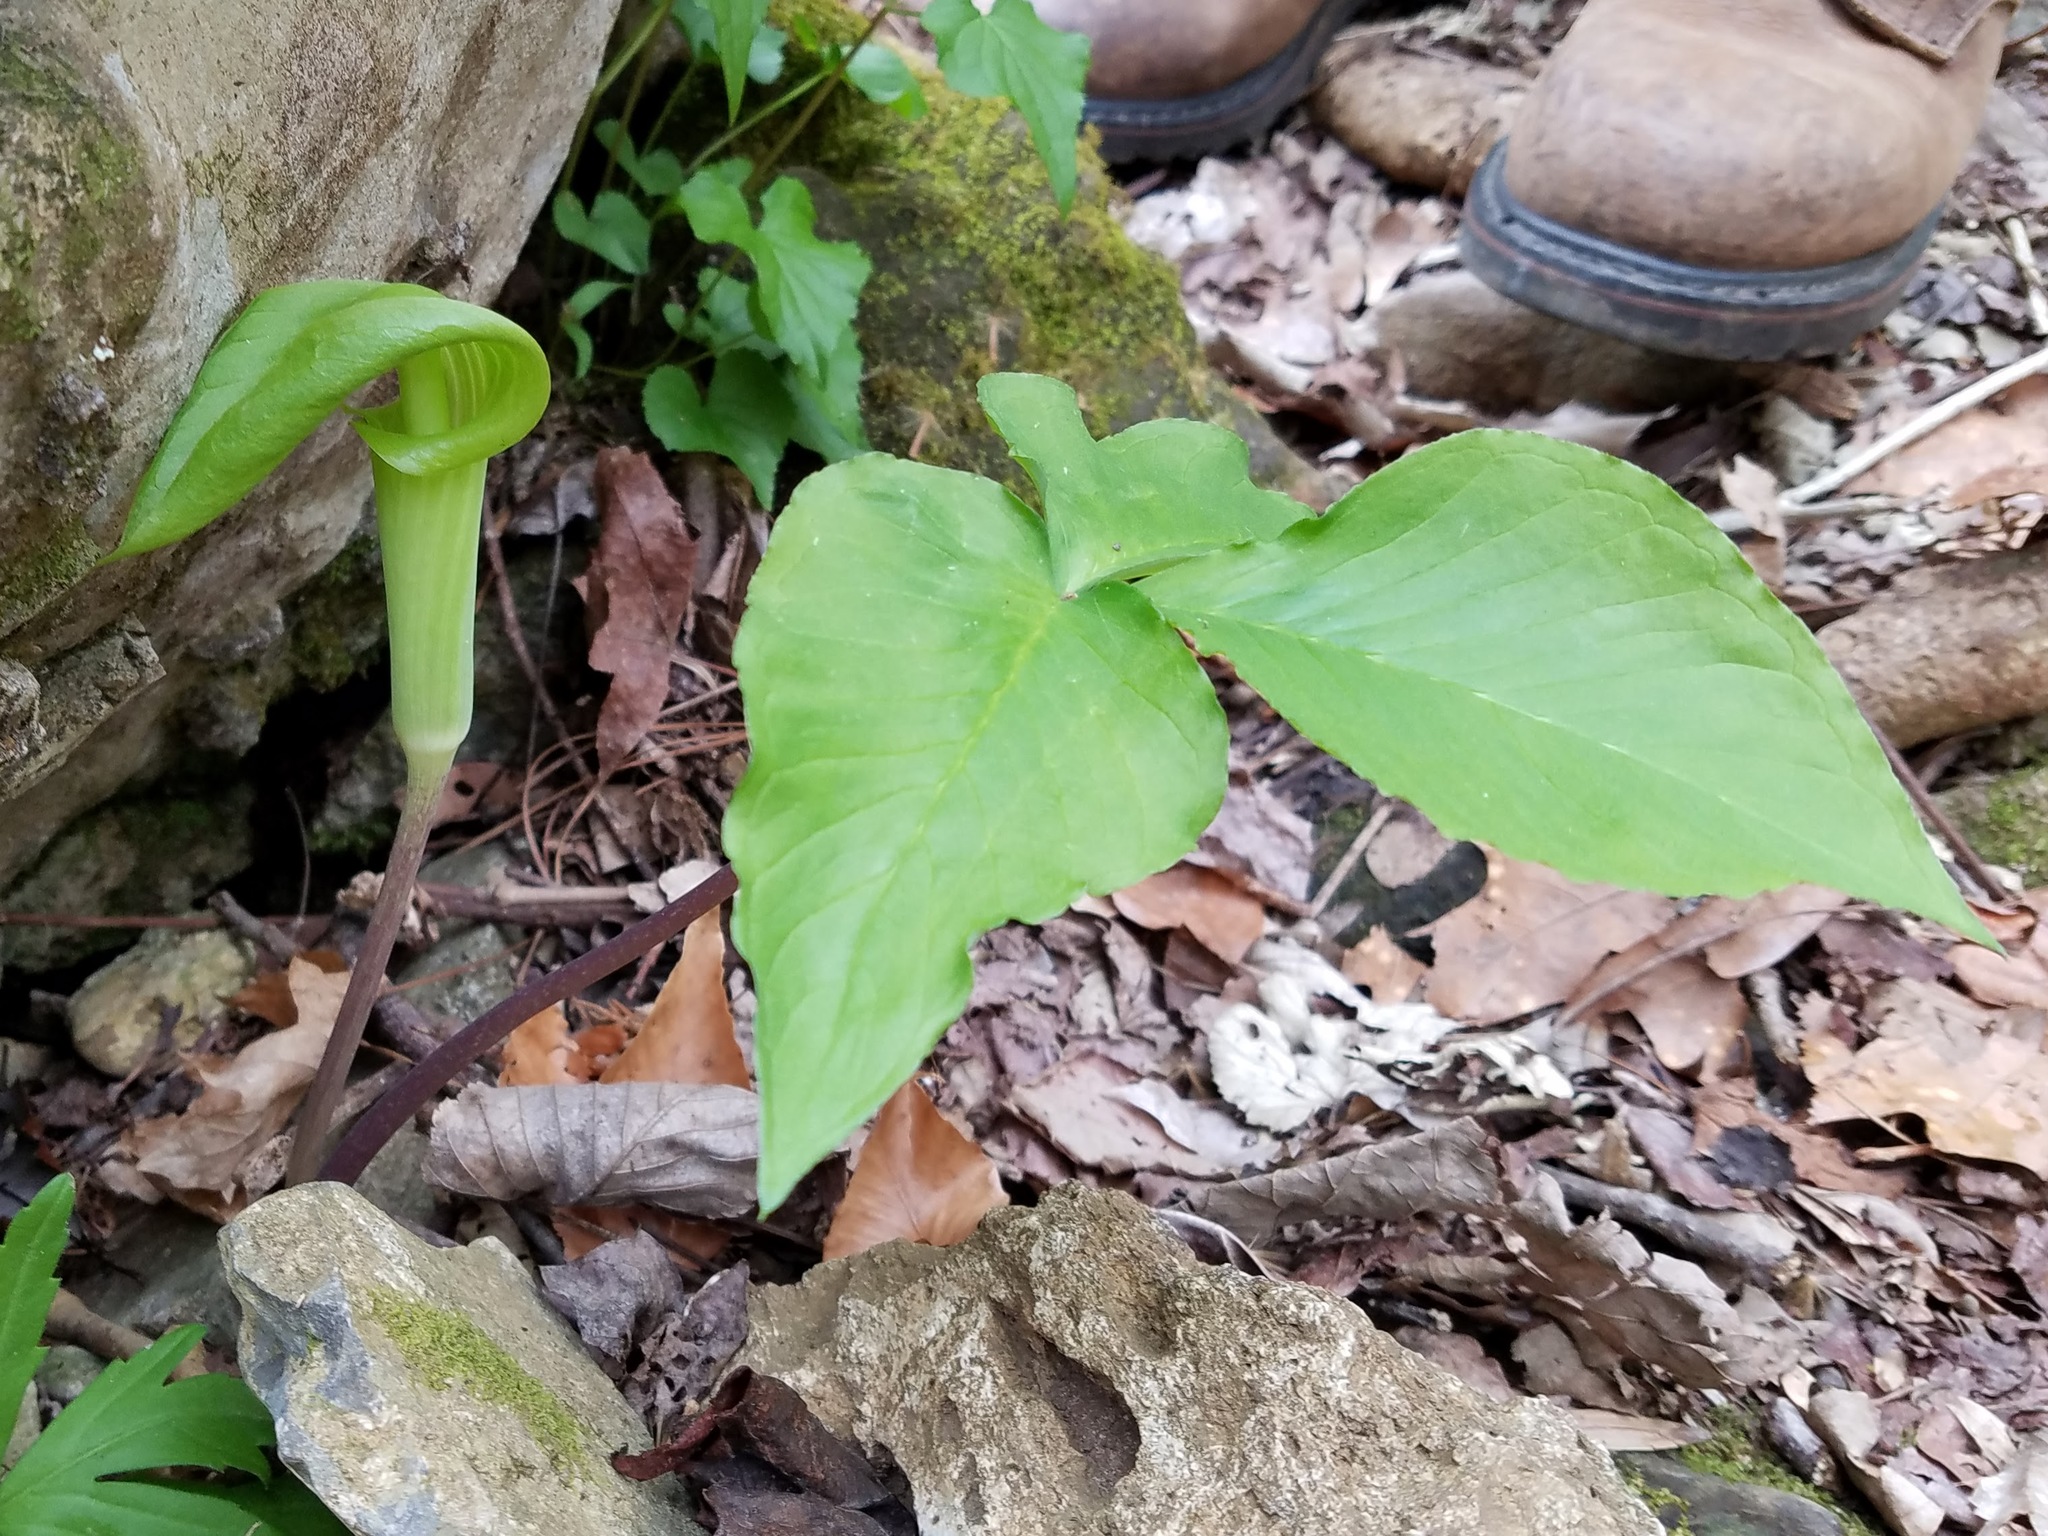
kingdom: Plantae
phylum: Tracheophyta
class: Liliopsida
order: Alismatales
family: Araceae
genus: Arisaema
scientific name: Arisaema triphyllum
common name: Jack-in-the-pulpit
